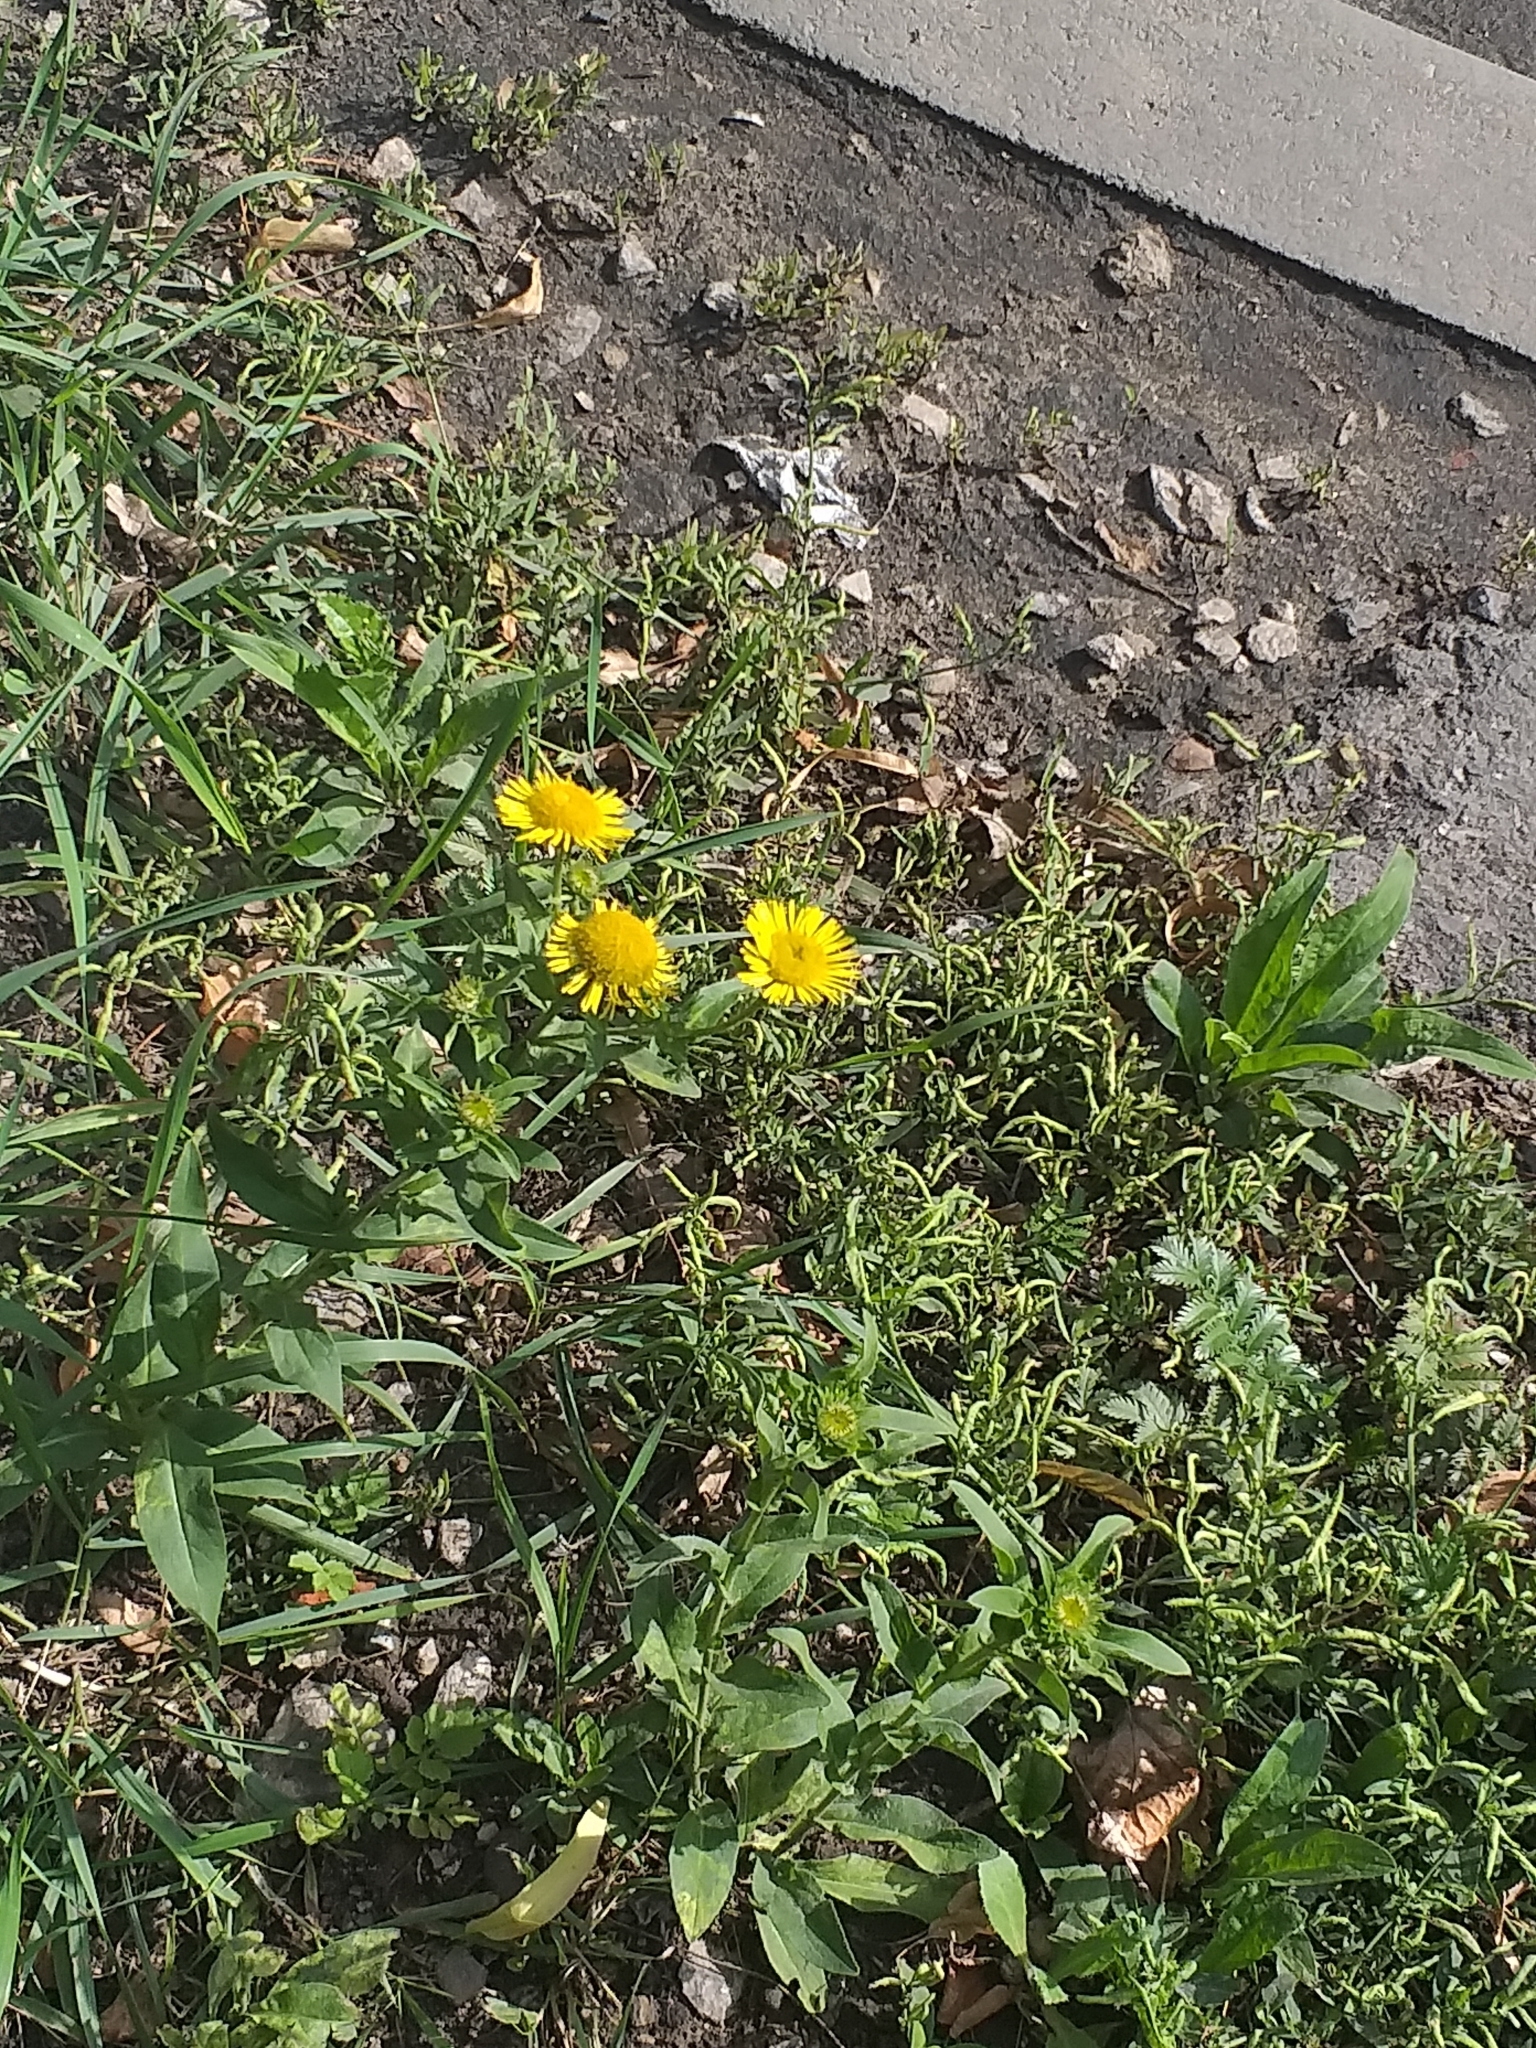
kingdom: Plantae
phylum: Tracheophyta
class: Magnoliopsida
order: Asterales
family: Asteraceae
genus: Pentanema
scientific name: Pentanema britannicum
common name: British elecampane
